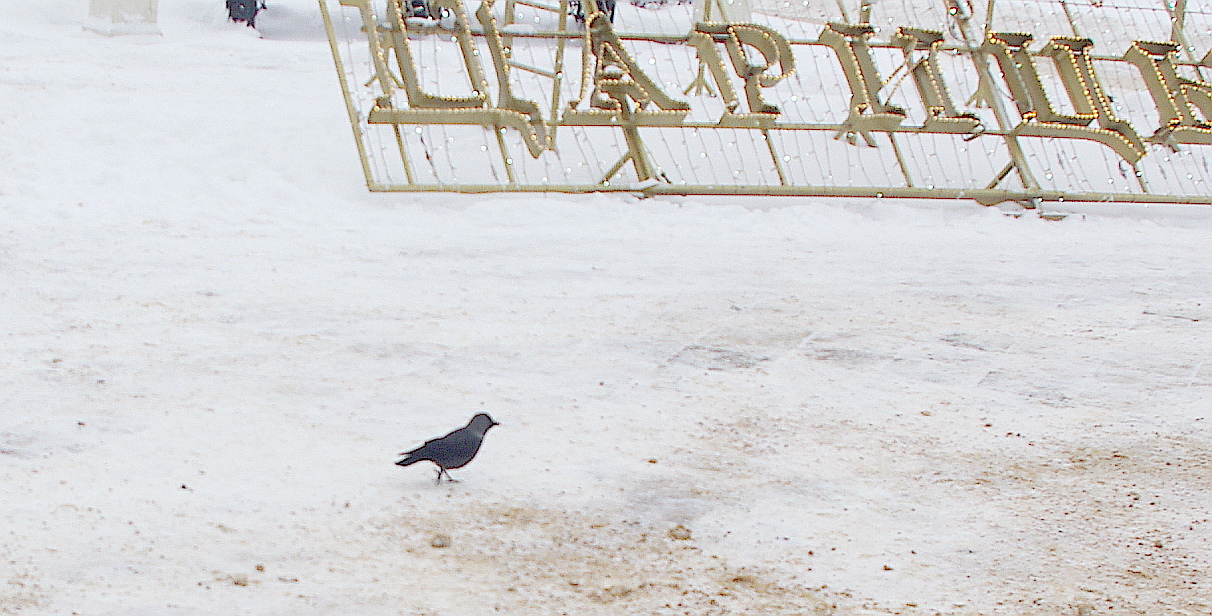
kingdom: Animalia
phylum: Chordata
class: Aves
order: Passeriformes
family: Corvidae
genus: Coloeus
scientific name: Coloeus monedula
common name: Western jackdaw
